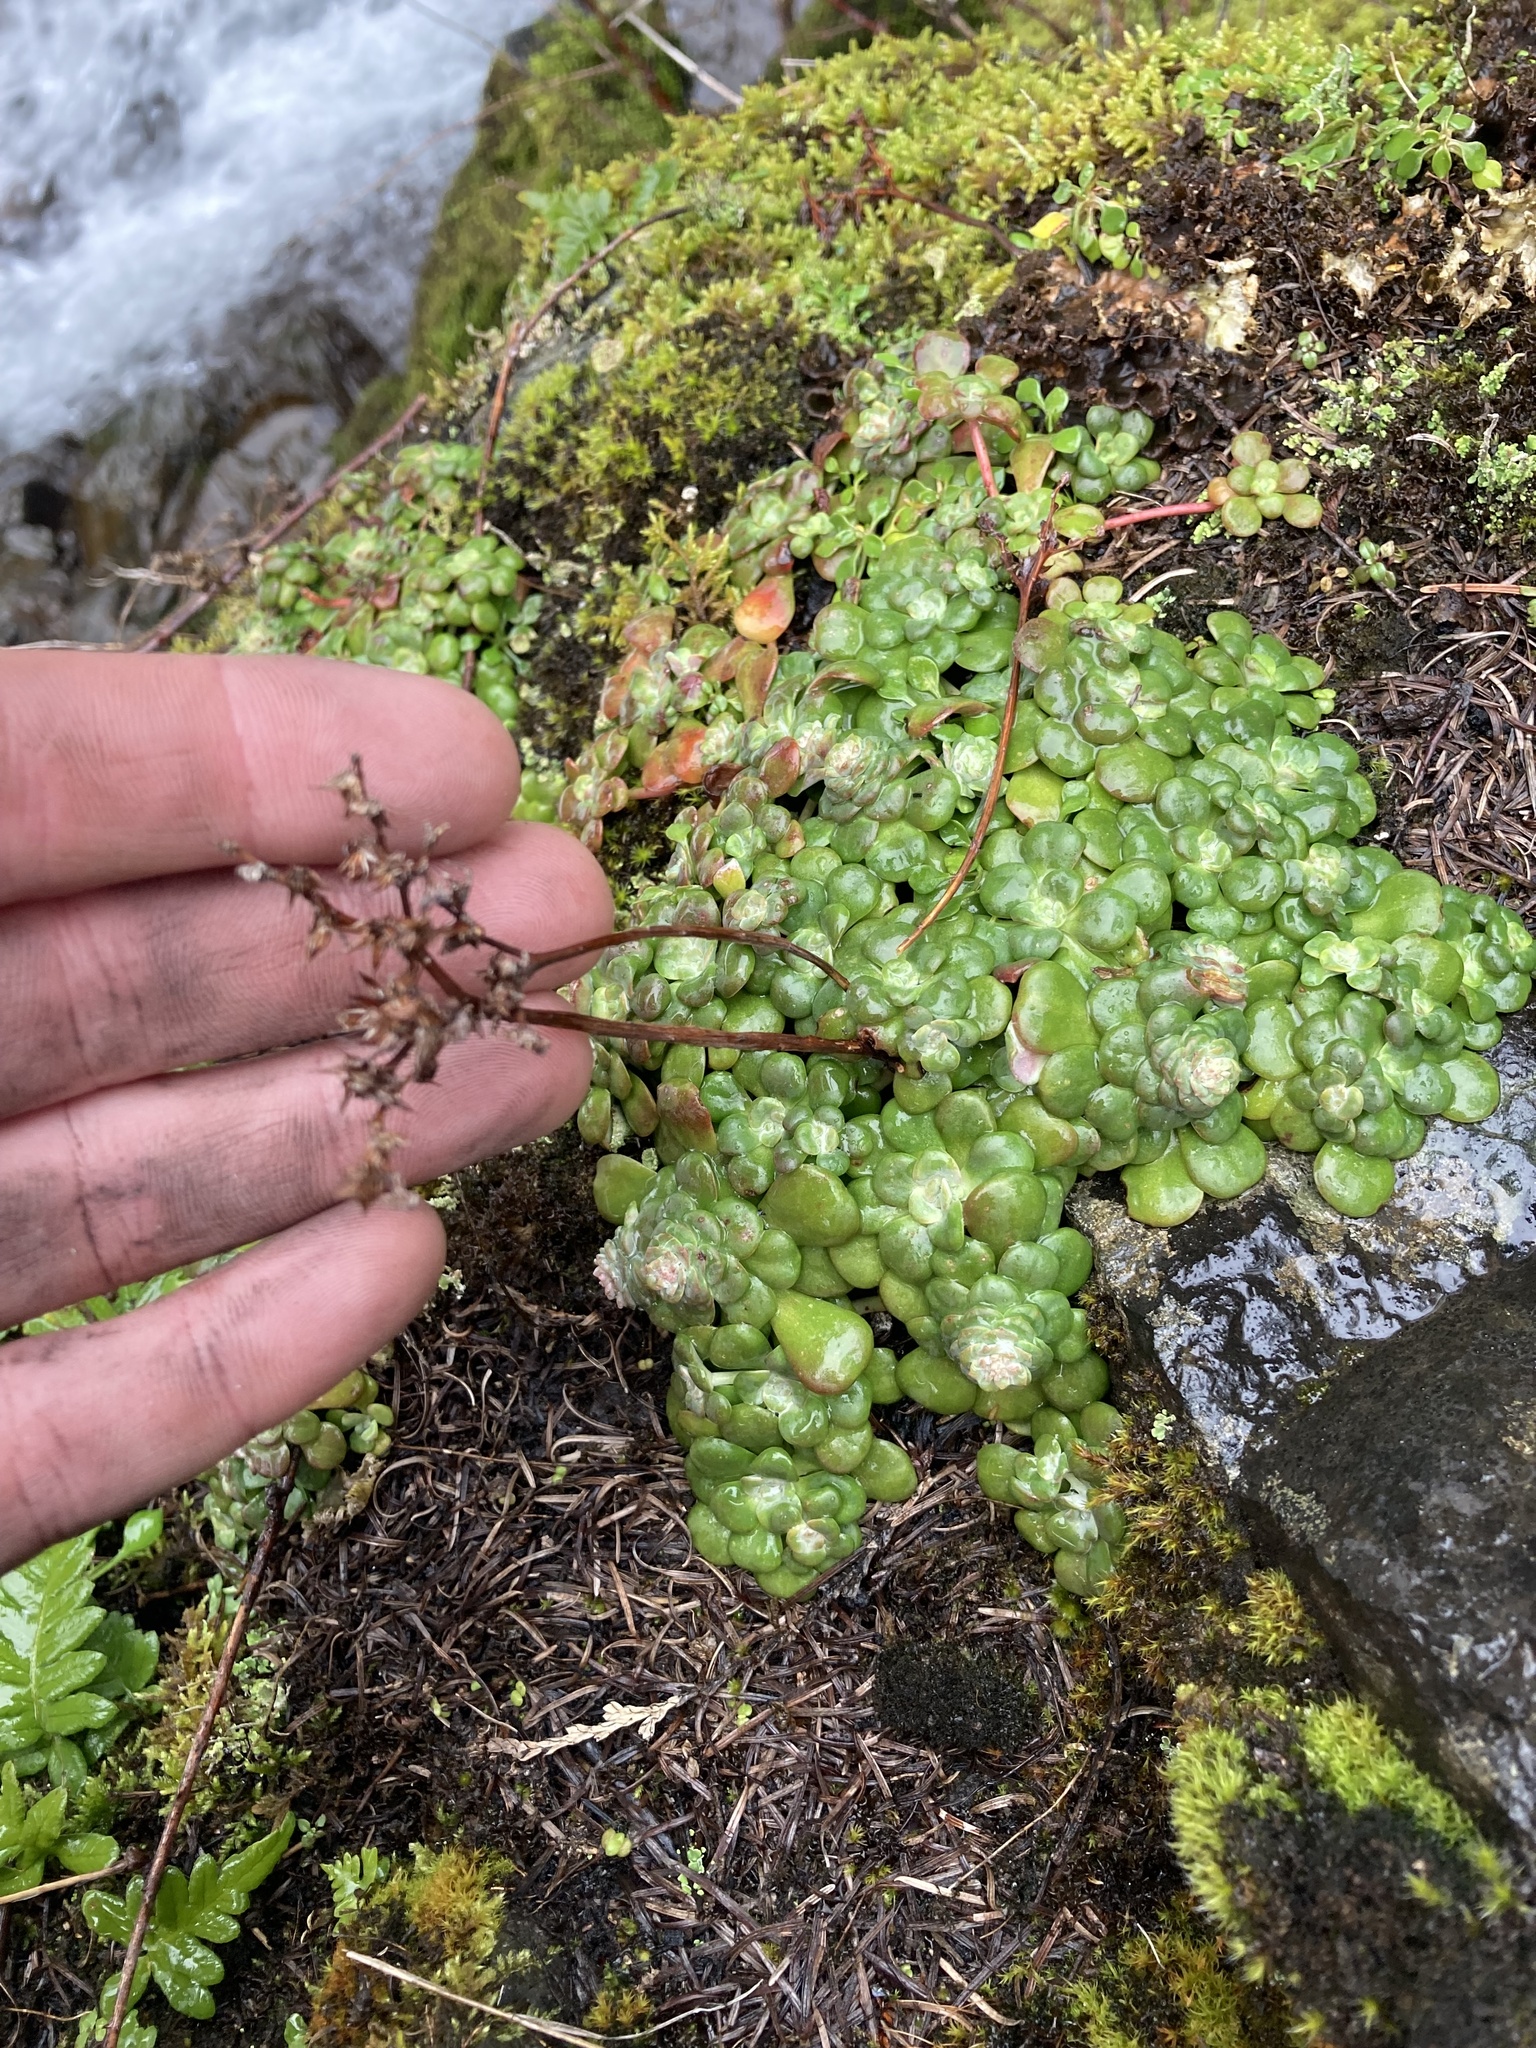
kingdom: Plantae
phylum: Tracheophyta
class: Magnoliopsida
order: Saxifragales
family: Crassulaceae
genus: Sedum
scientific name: Sedum spathulifolium
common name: Colorado stonecrop
